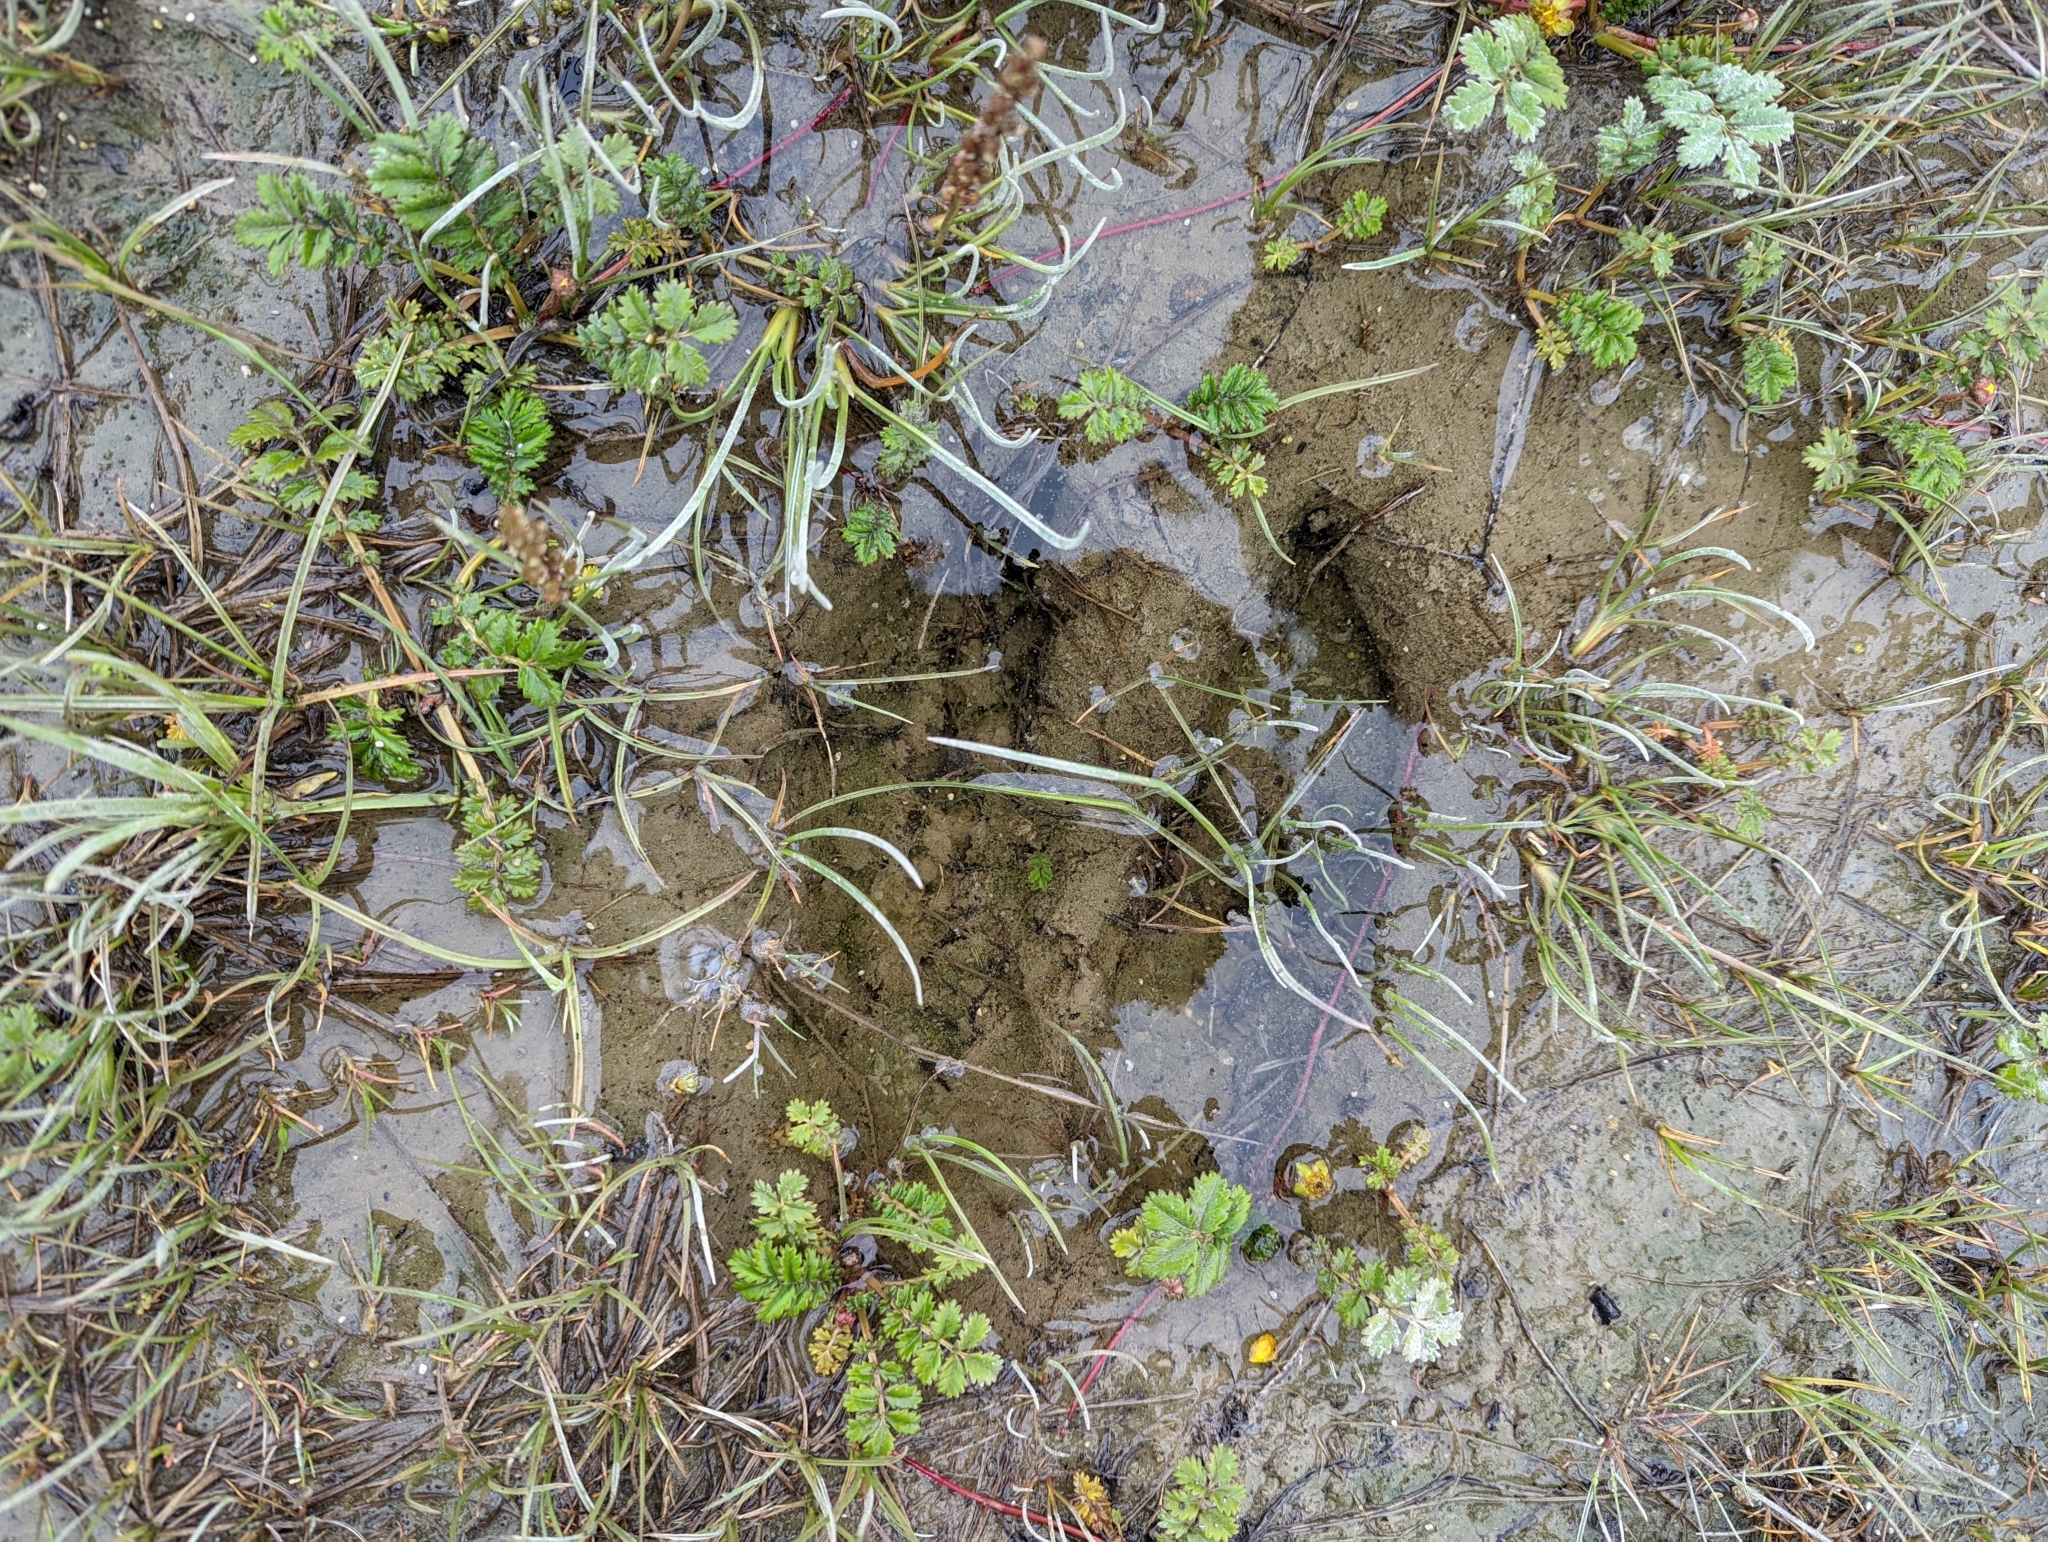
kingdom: Animalia
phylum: Chordata
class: Mammalia
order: Artiodactyla
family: Cervidae
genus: Alces
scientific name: Alces alces
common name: Moose
